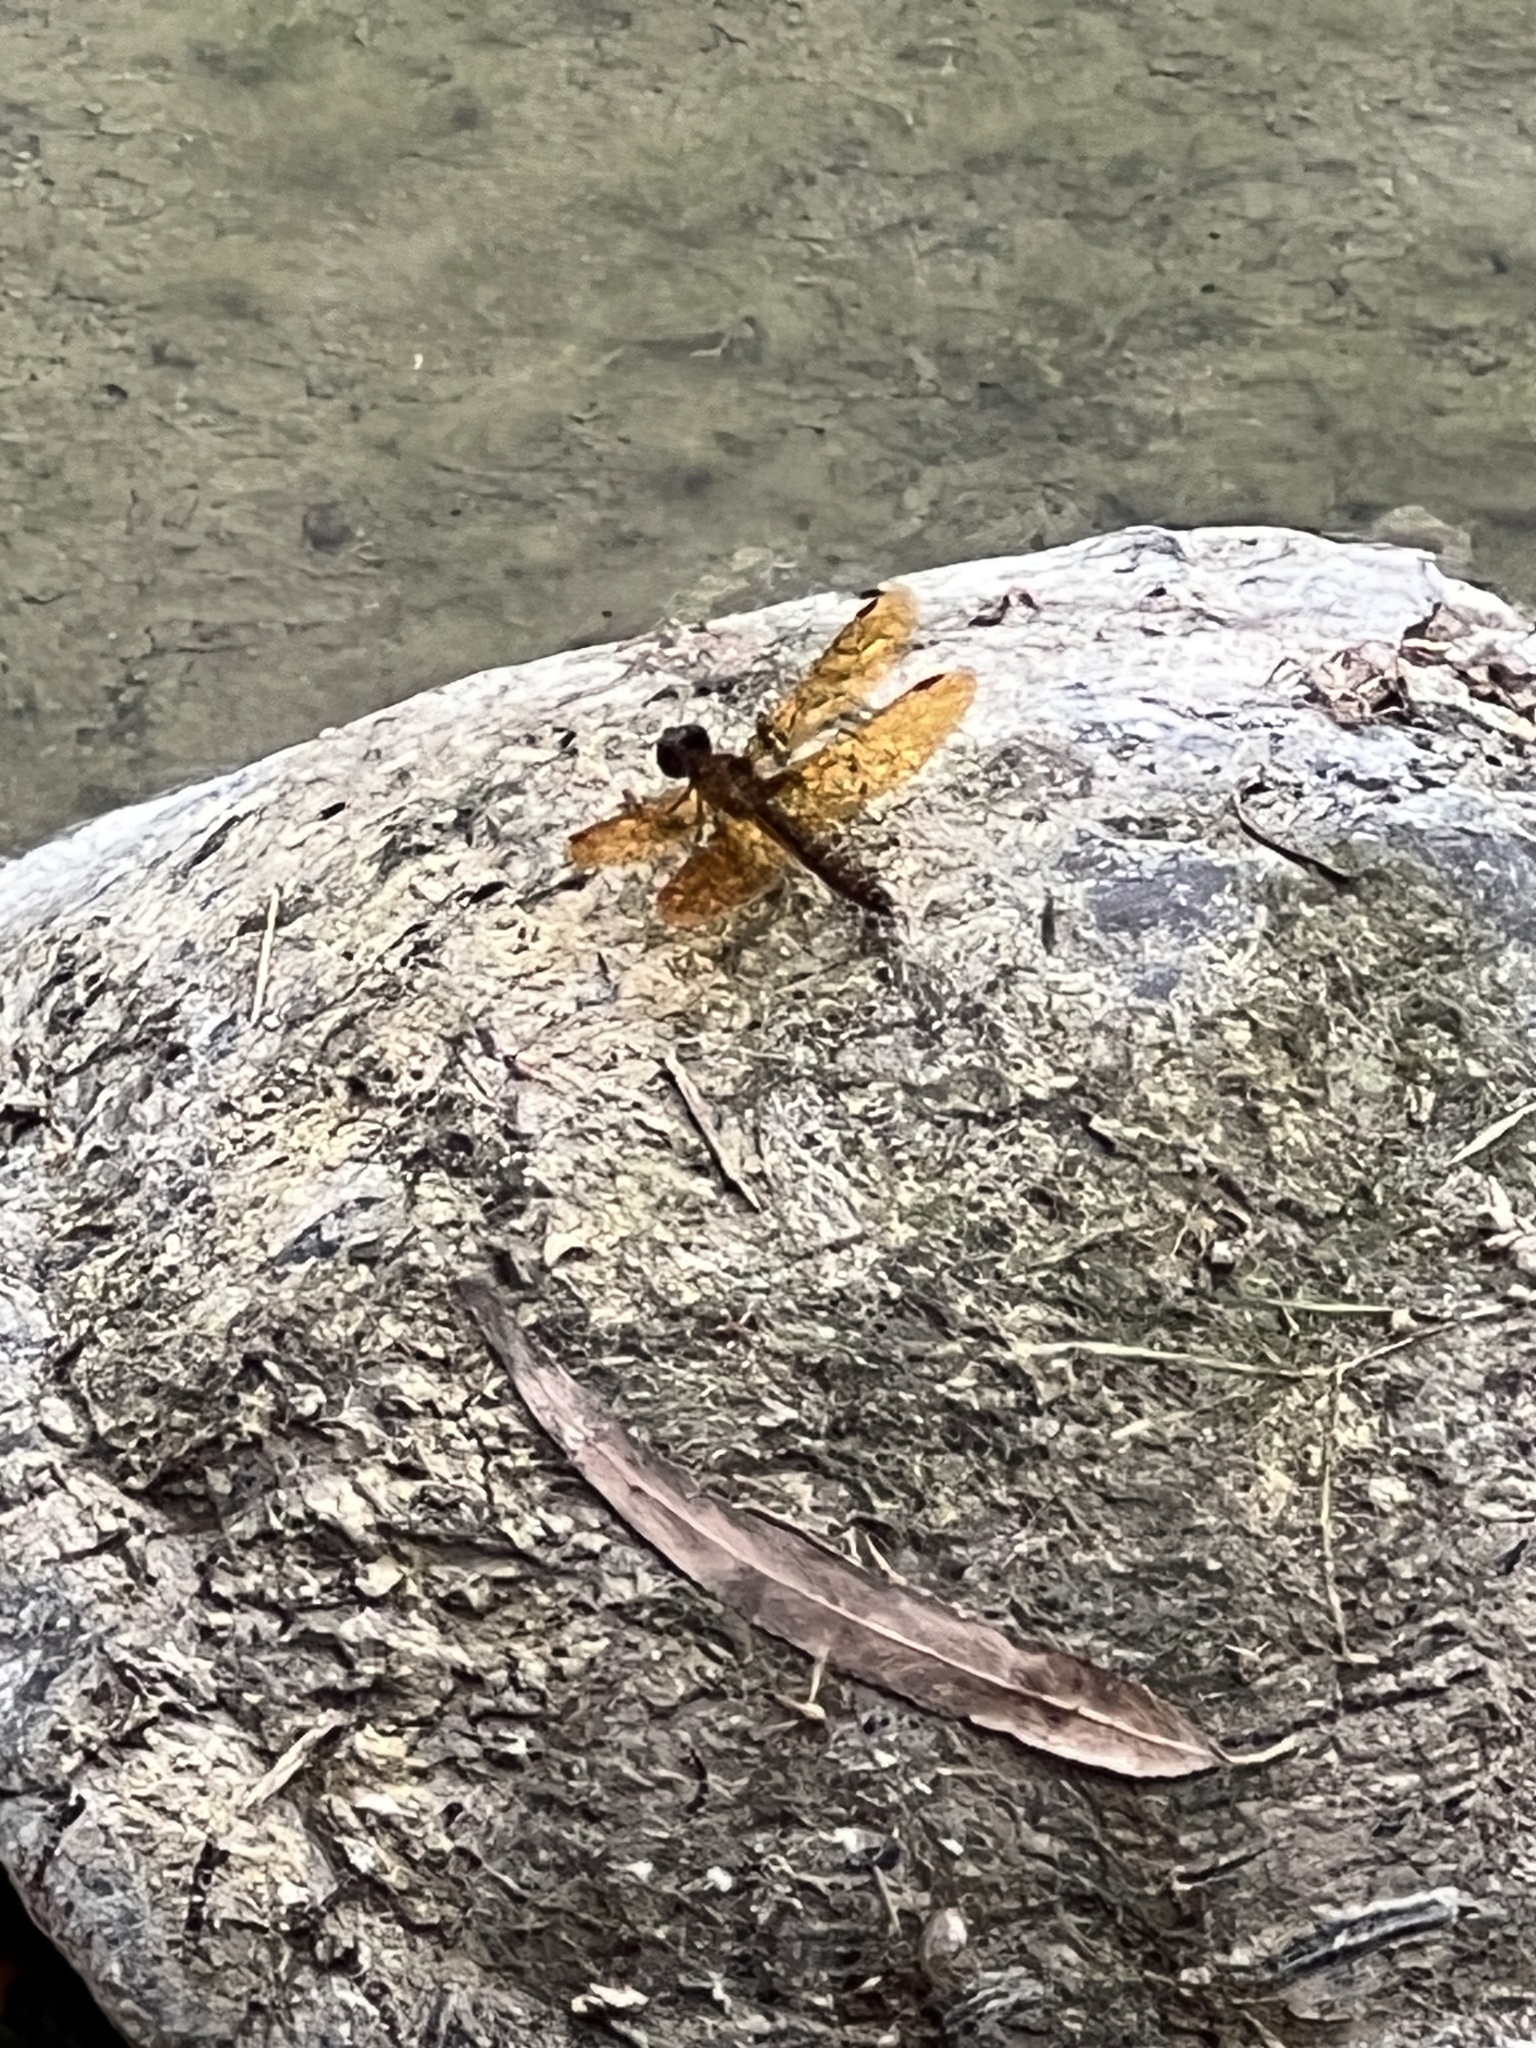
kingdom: Animalia
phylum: Arthropoda
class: Insecta
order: Odonata
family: Libellulidae
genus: Perithemis
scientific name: Perithemis tenera
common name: Eastern amberwing
